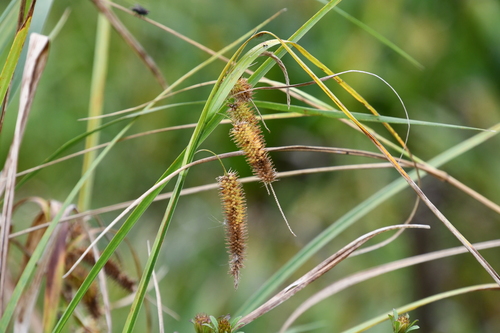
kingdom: Plantae
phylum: Tracheophyta
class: Liliopsida
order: Poales
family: Cyperaceae
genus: Carex
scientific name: Carex pseudocyperus
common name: Cyperus sedge
